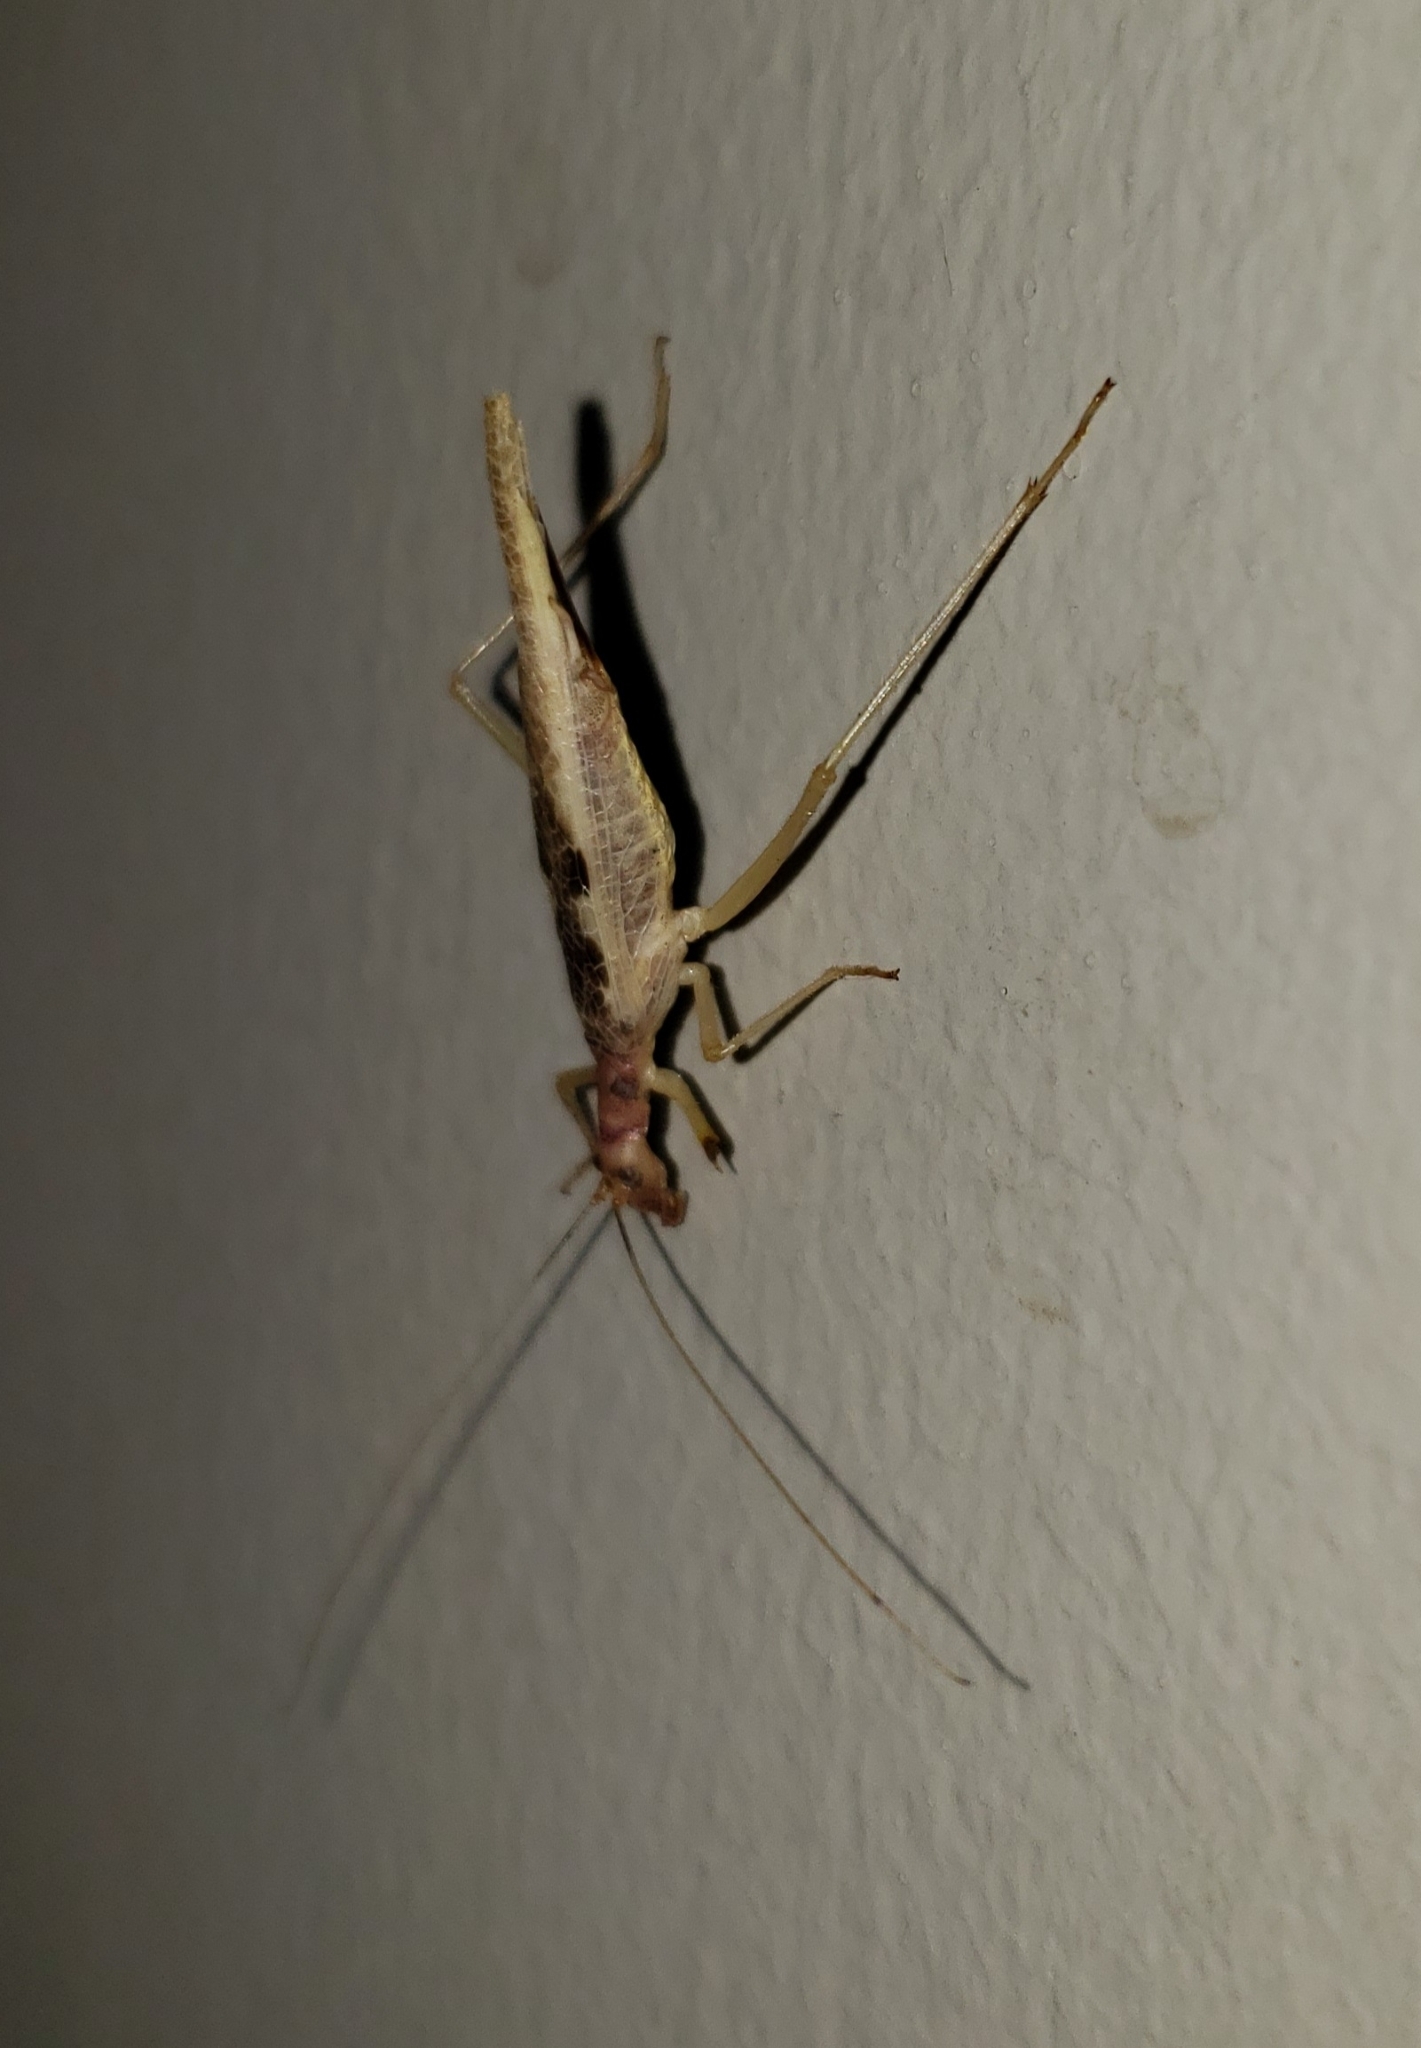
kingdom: Animalia
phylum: Arthropoda
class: Insecta
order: Orthoptera
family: Gryllidae
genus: Neoxabea
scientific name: Neoxabea bipunctata
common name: Two-spotted tree cricket
